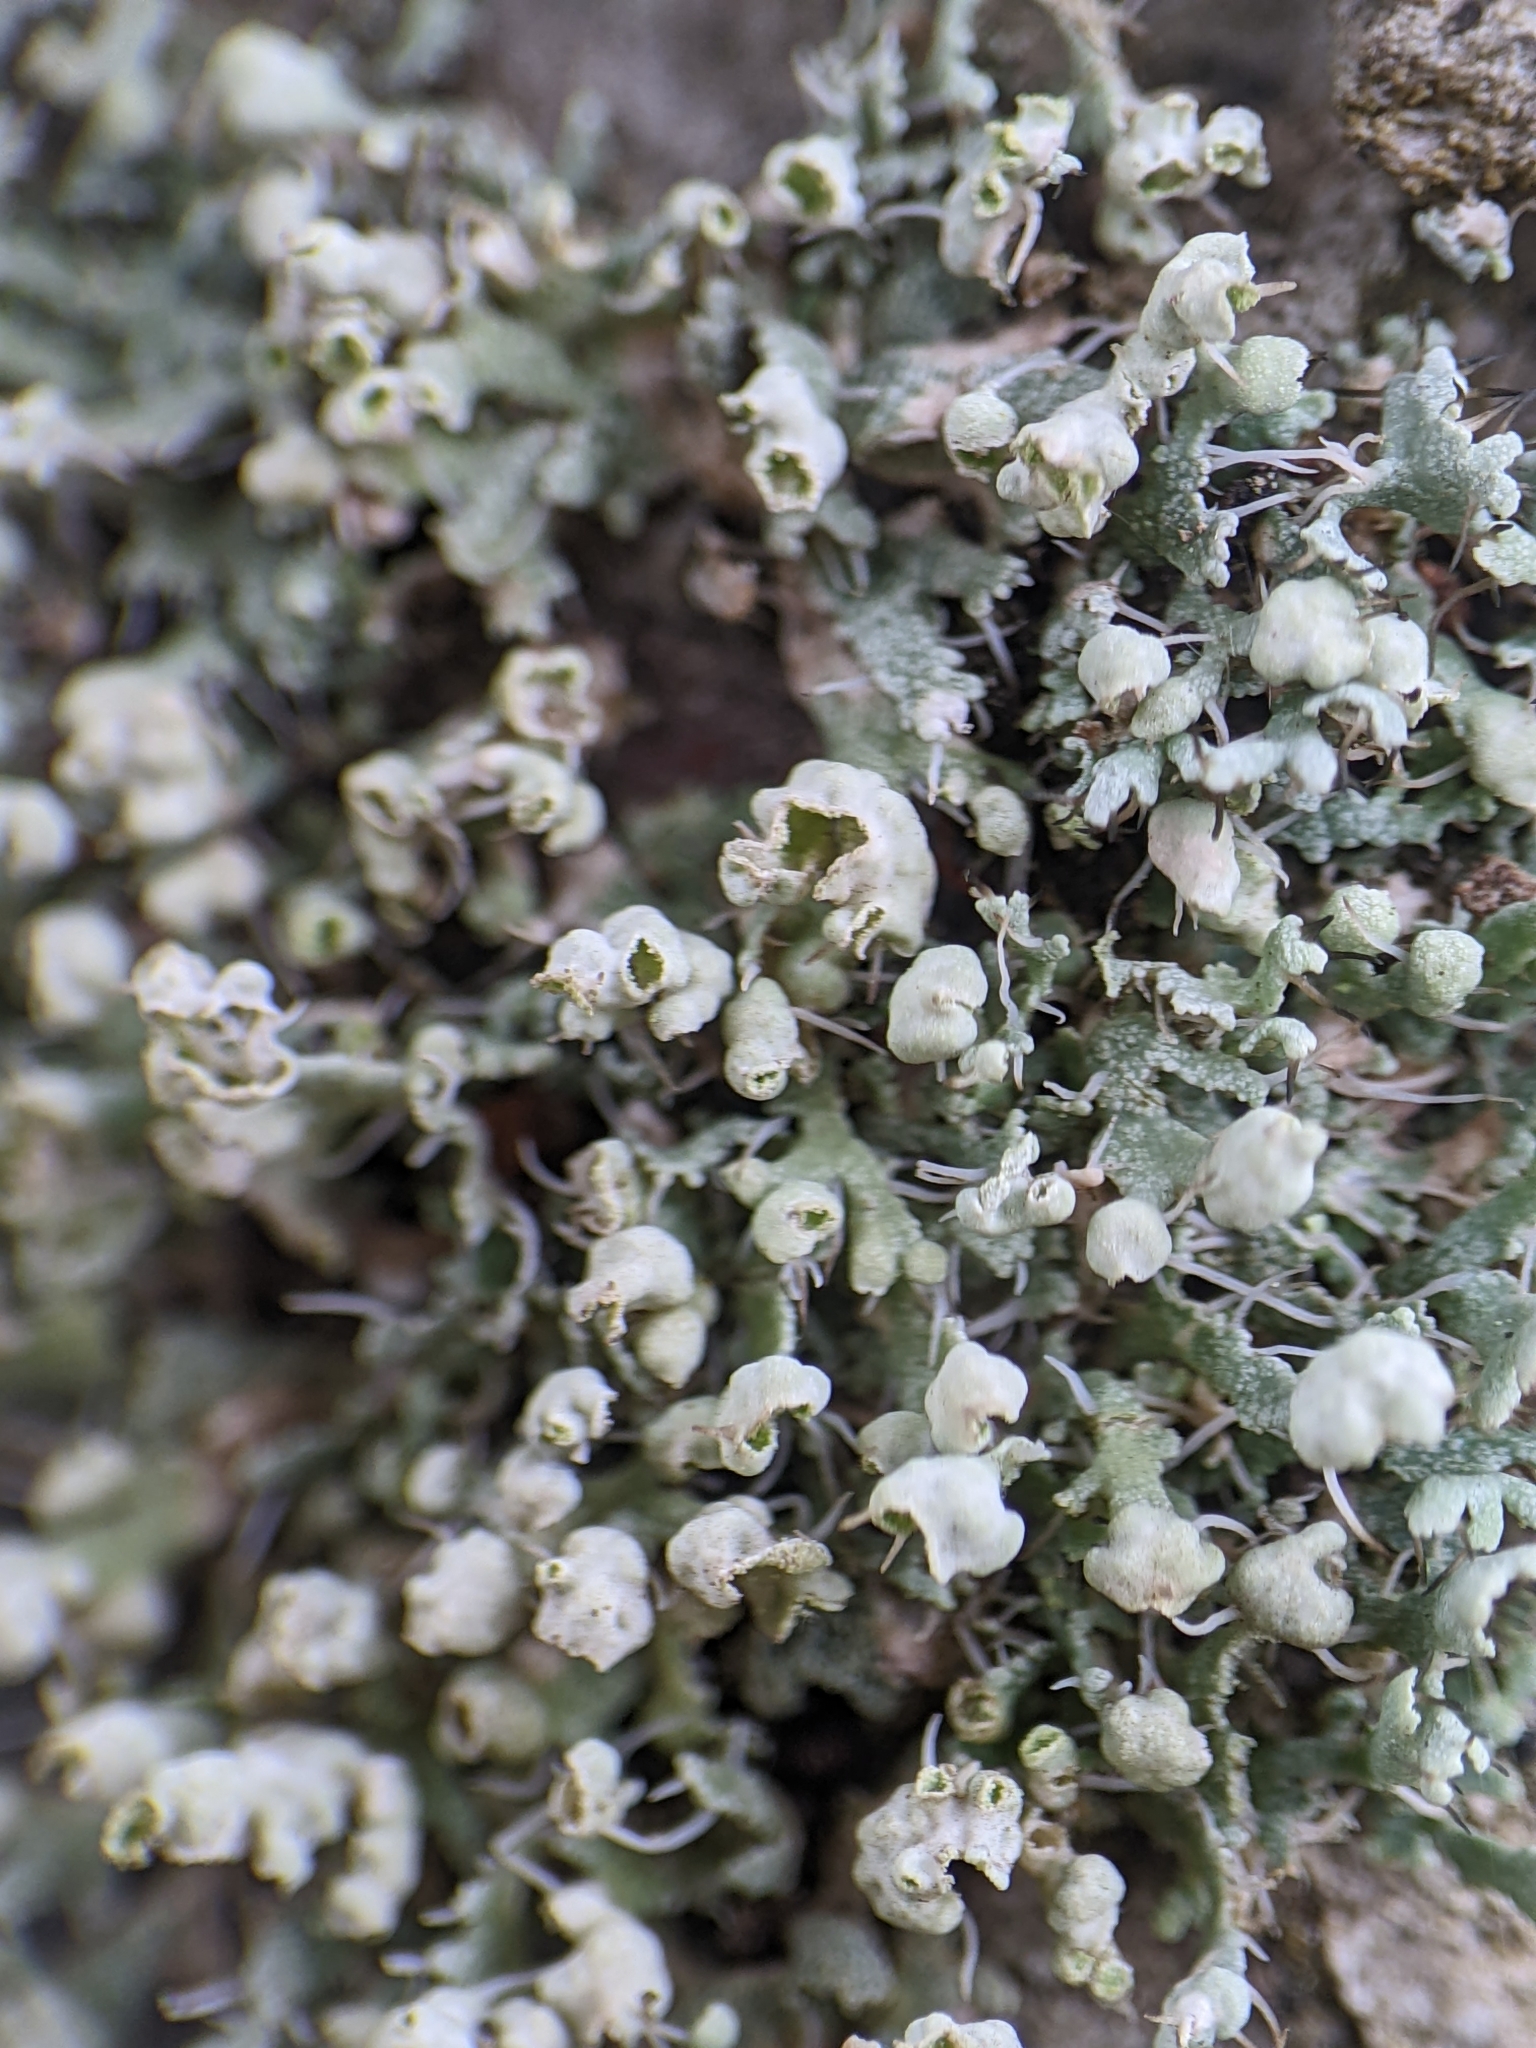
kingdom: Fungi
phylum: Ascomycota
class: Lecanoromycetes
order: Caliciales
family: Physciaceae
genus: Physcia
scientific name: Physcia adscendens
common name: Hooded rosette lichen
